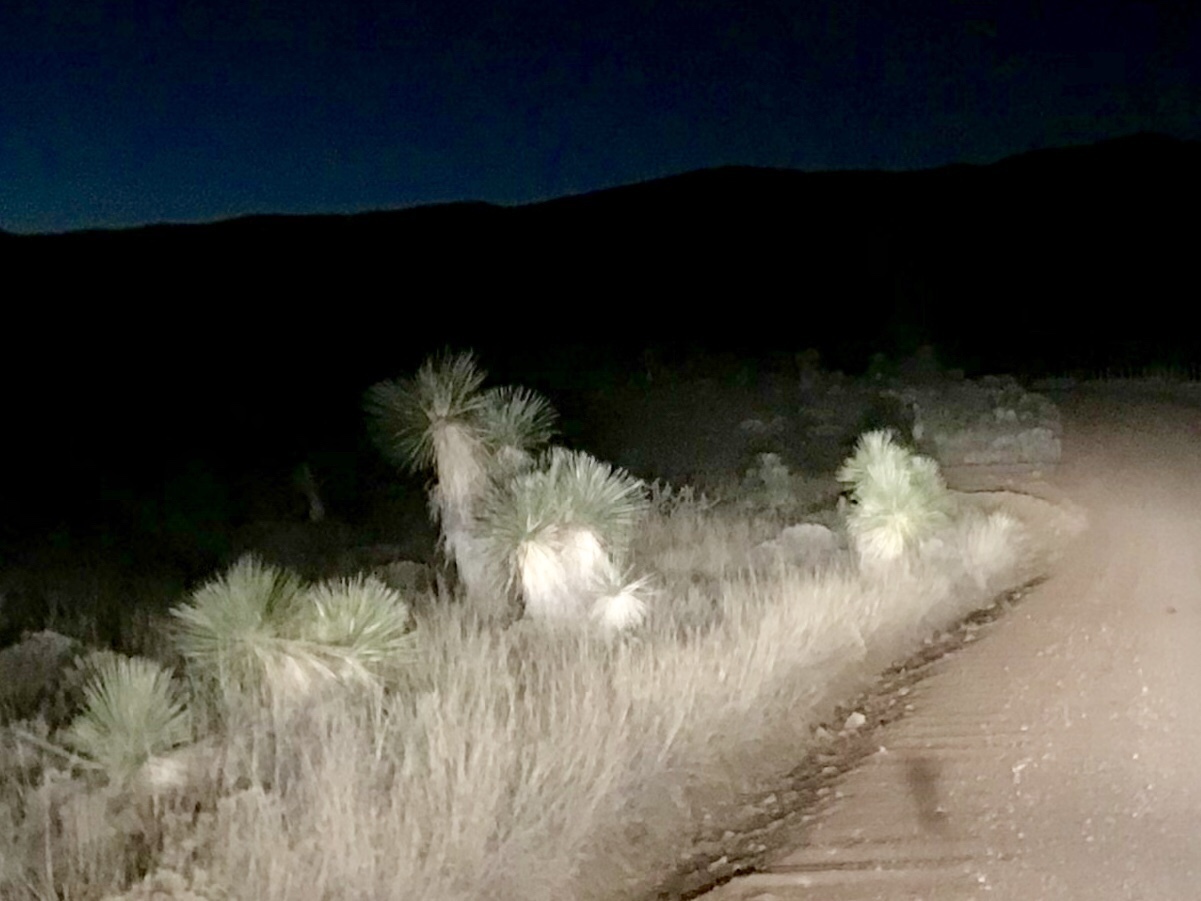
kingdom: Plantae
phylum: Tracheophyta
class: Liliopsida
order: Asparagales
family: Asparagaceae
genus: Yucca
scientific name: Yucca elata
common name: Palmella
